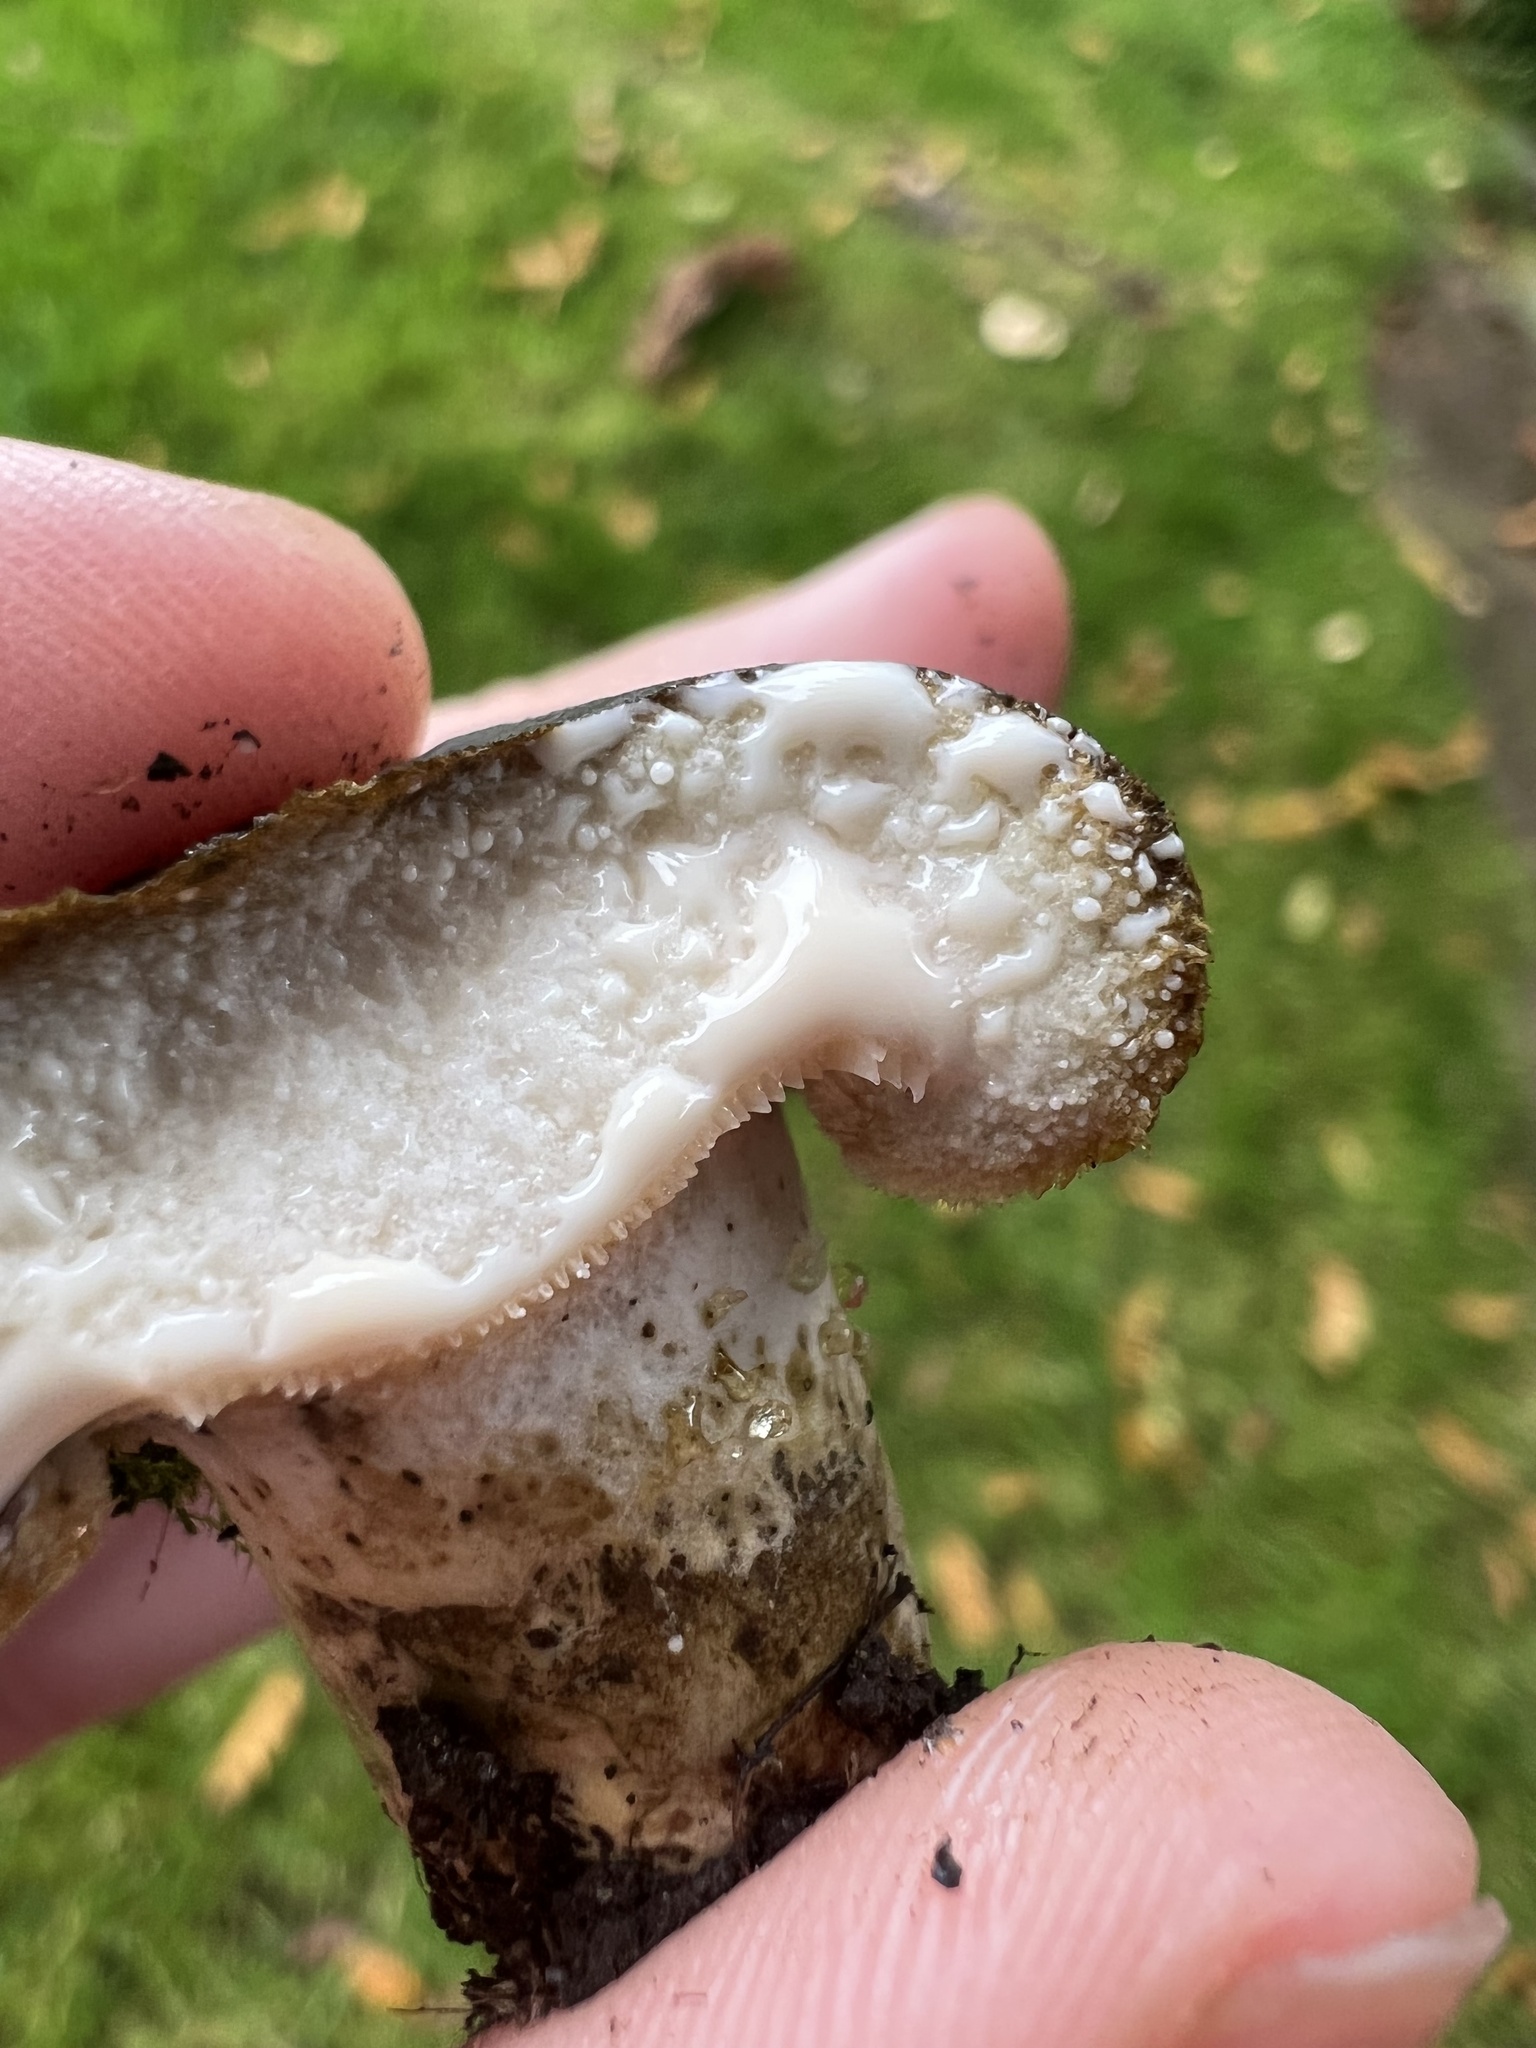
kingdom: Fungi
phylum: Basidiomycota
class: Agaricomycetes
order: Russulales
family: Russulaceae
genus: Lactarius
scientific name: Lactarius turpis
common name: Ugly milk-cap
